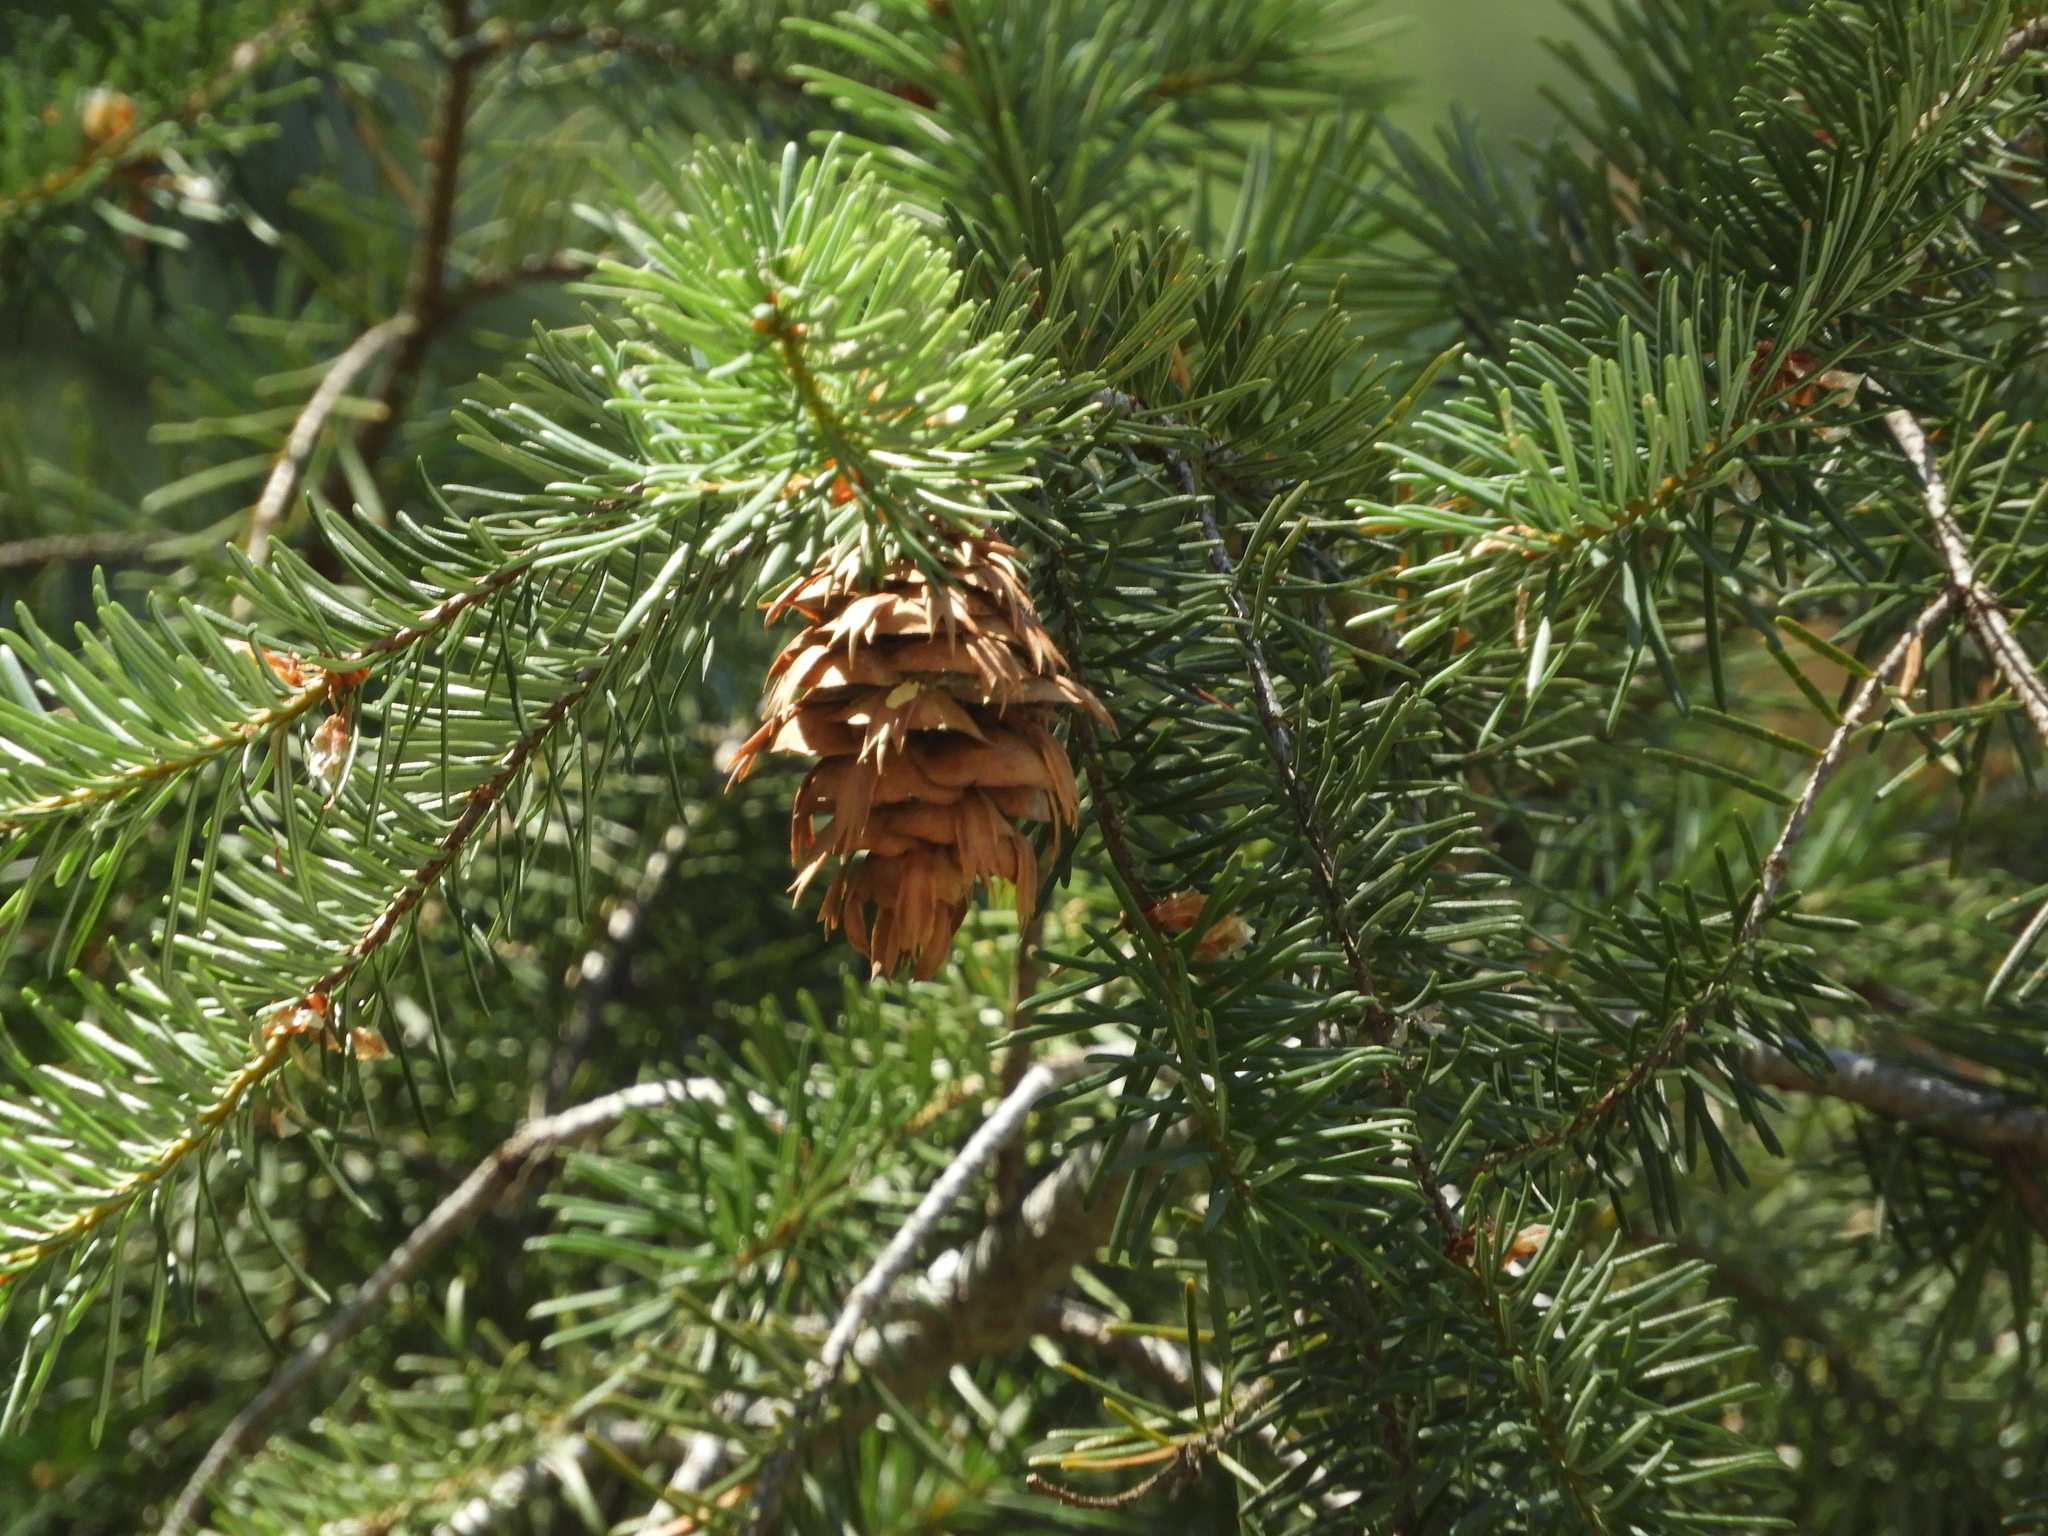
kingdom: Plantae
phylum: Tracheophyta
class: Pinopsida
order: Pinales
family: Pinaceae
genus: Pseudotsuga
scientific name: Pseudotsuga menziesii
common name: Douglas fir
